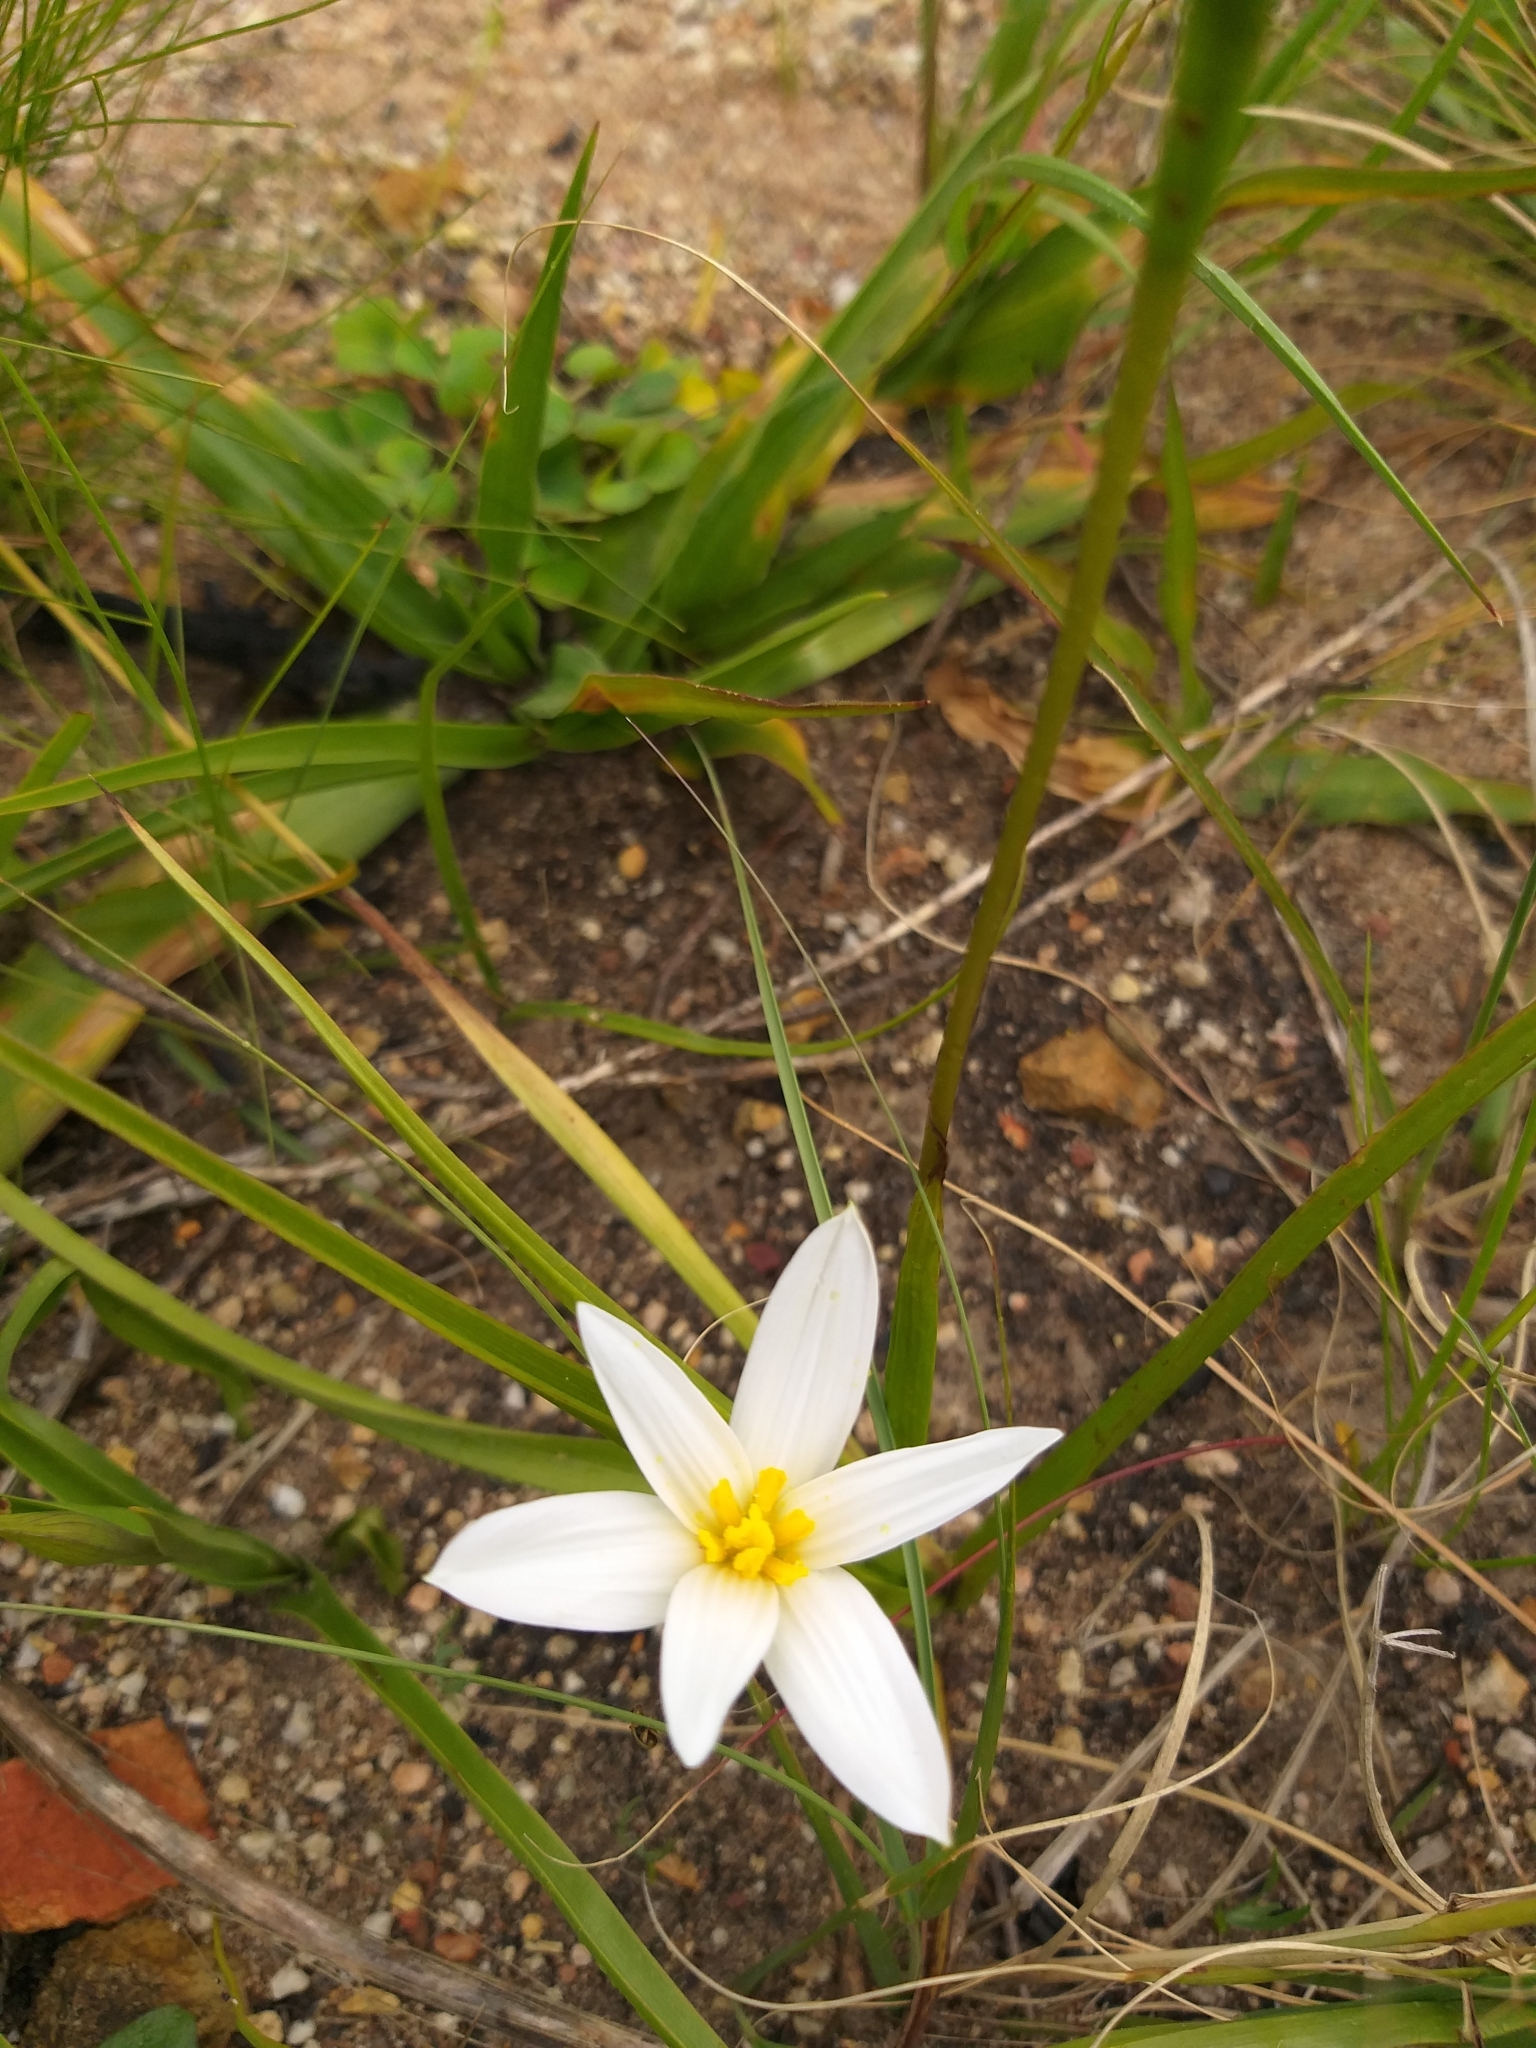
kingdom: Plantae
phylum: Tracheophyta
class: Liliopsida
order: Asparagales
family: Hypoxidaceae
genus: Pauridia
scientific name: Pauridia capensis
